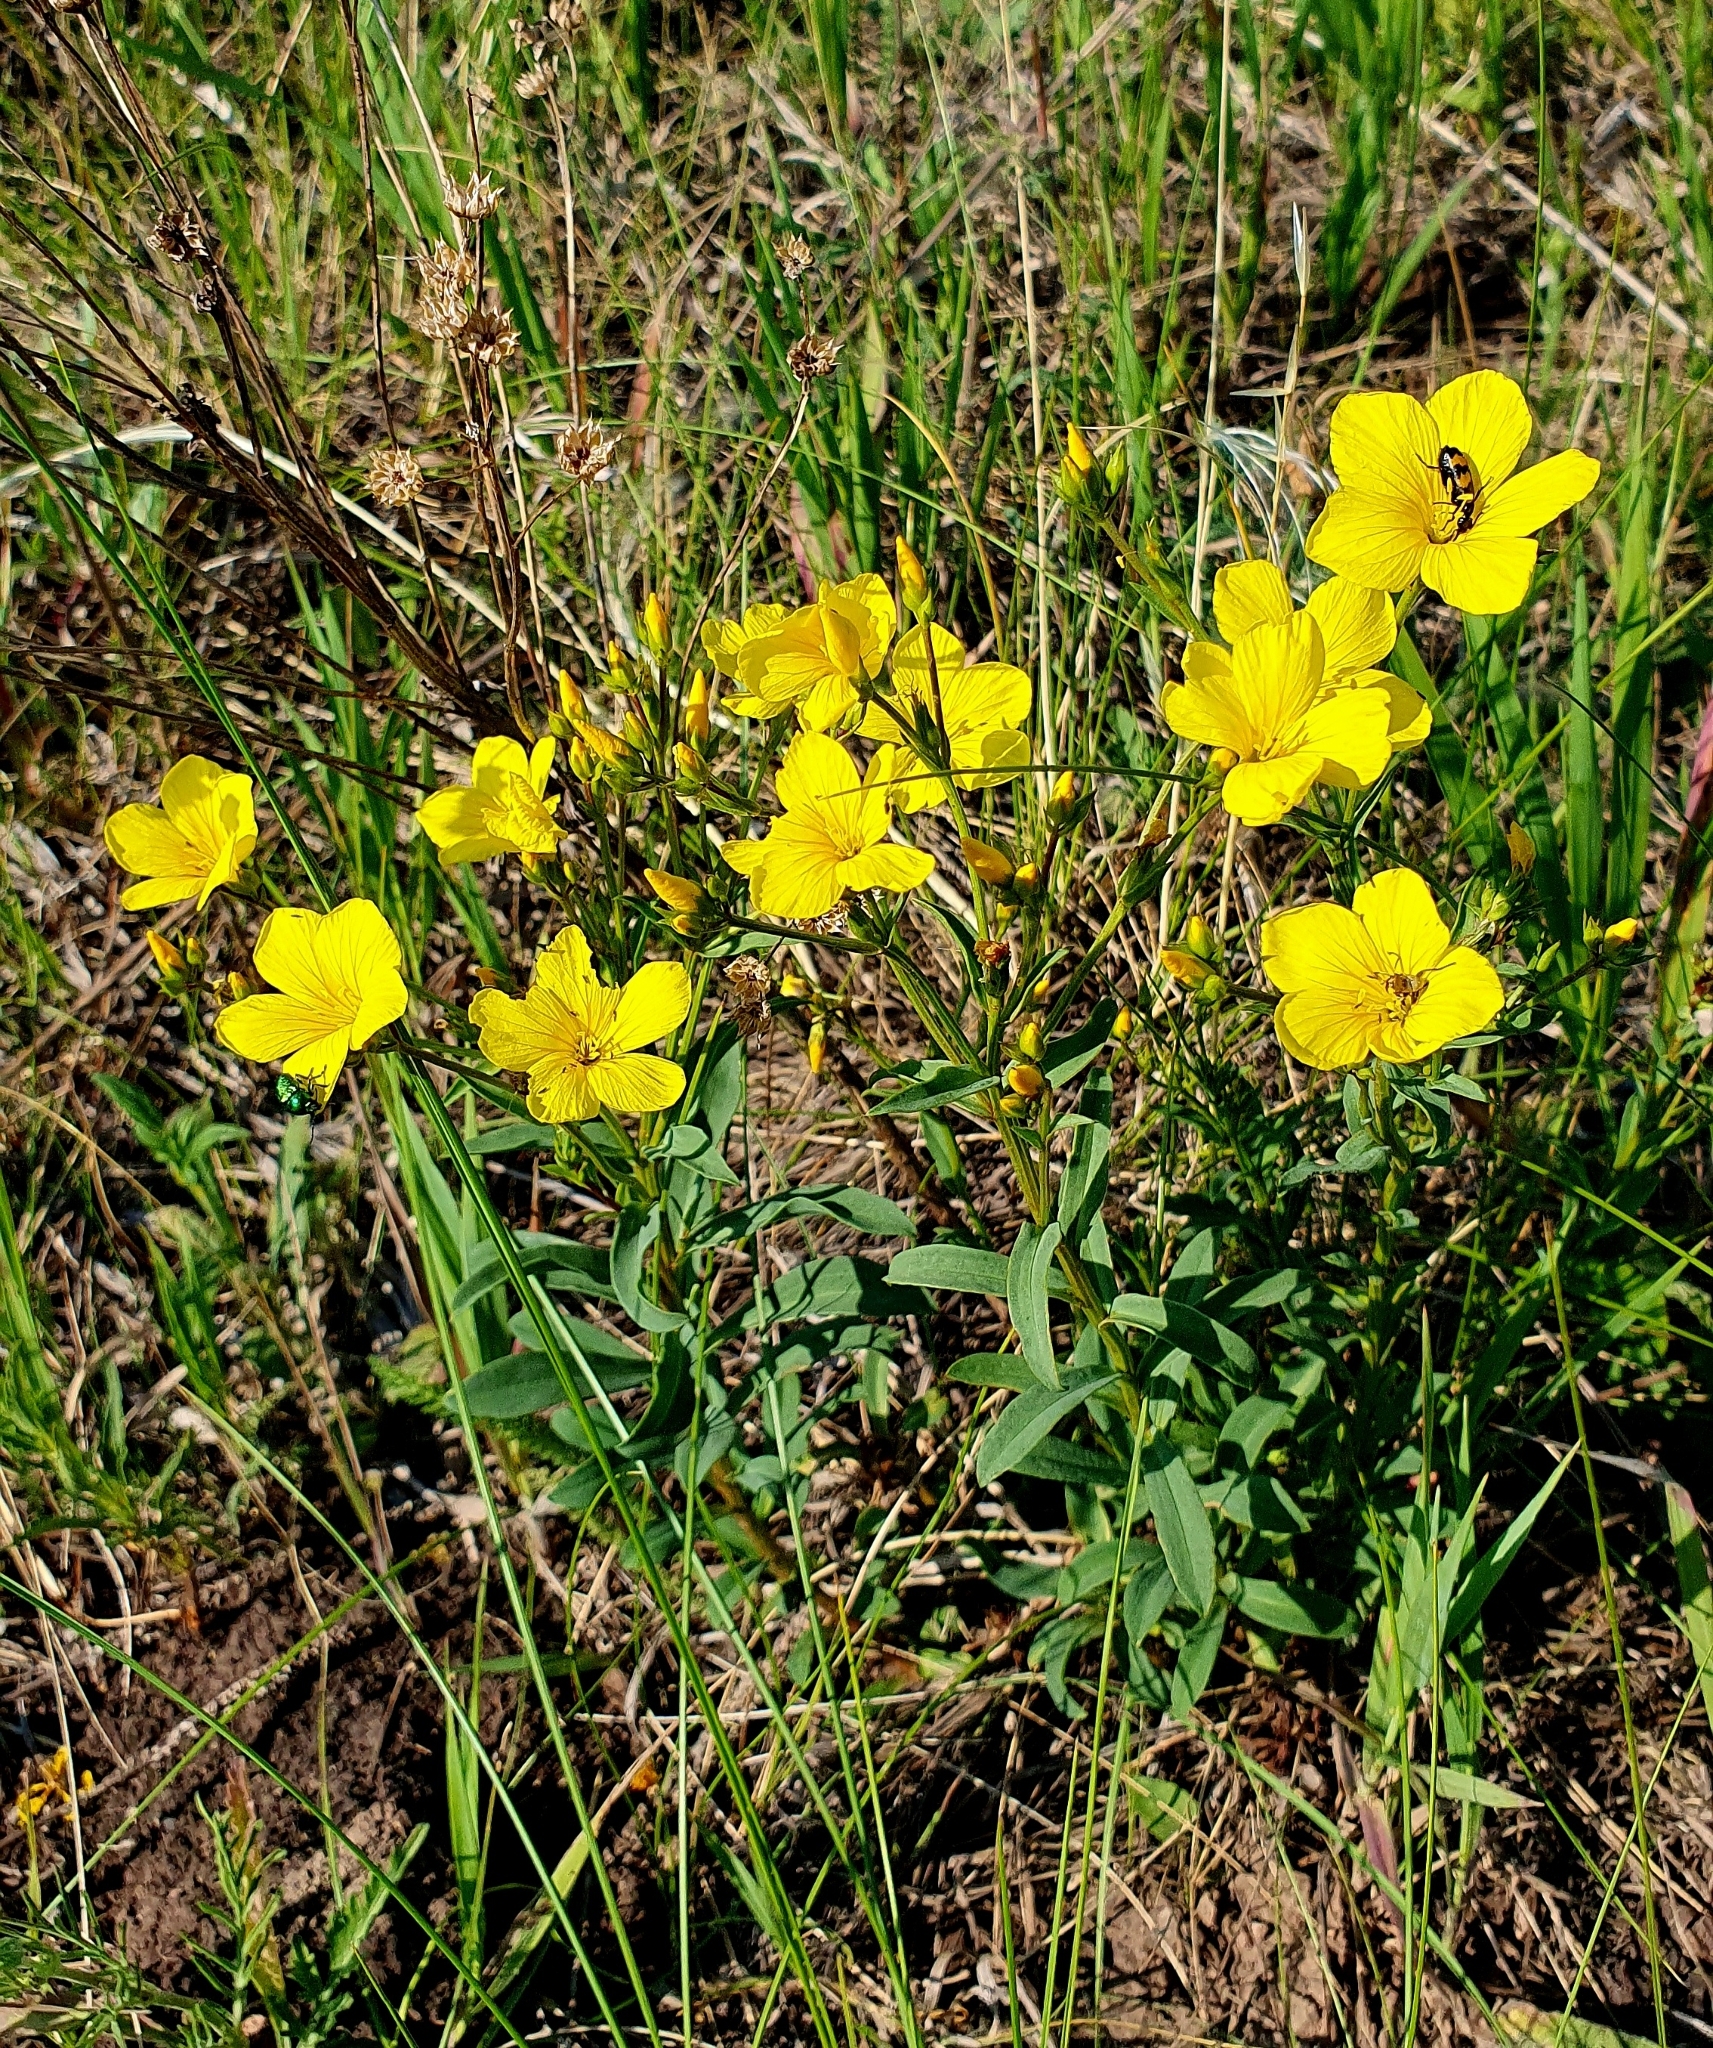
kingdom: Plantae
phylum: Tracheophyta
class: Magnoliopsida
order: Malpighiales
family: Linaceae
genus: Linum
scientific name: Linum flavum
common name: Yellow flax
